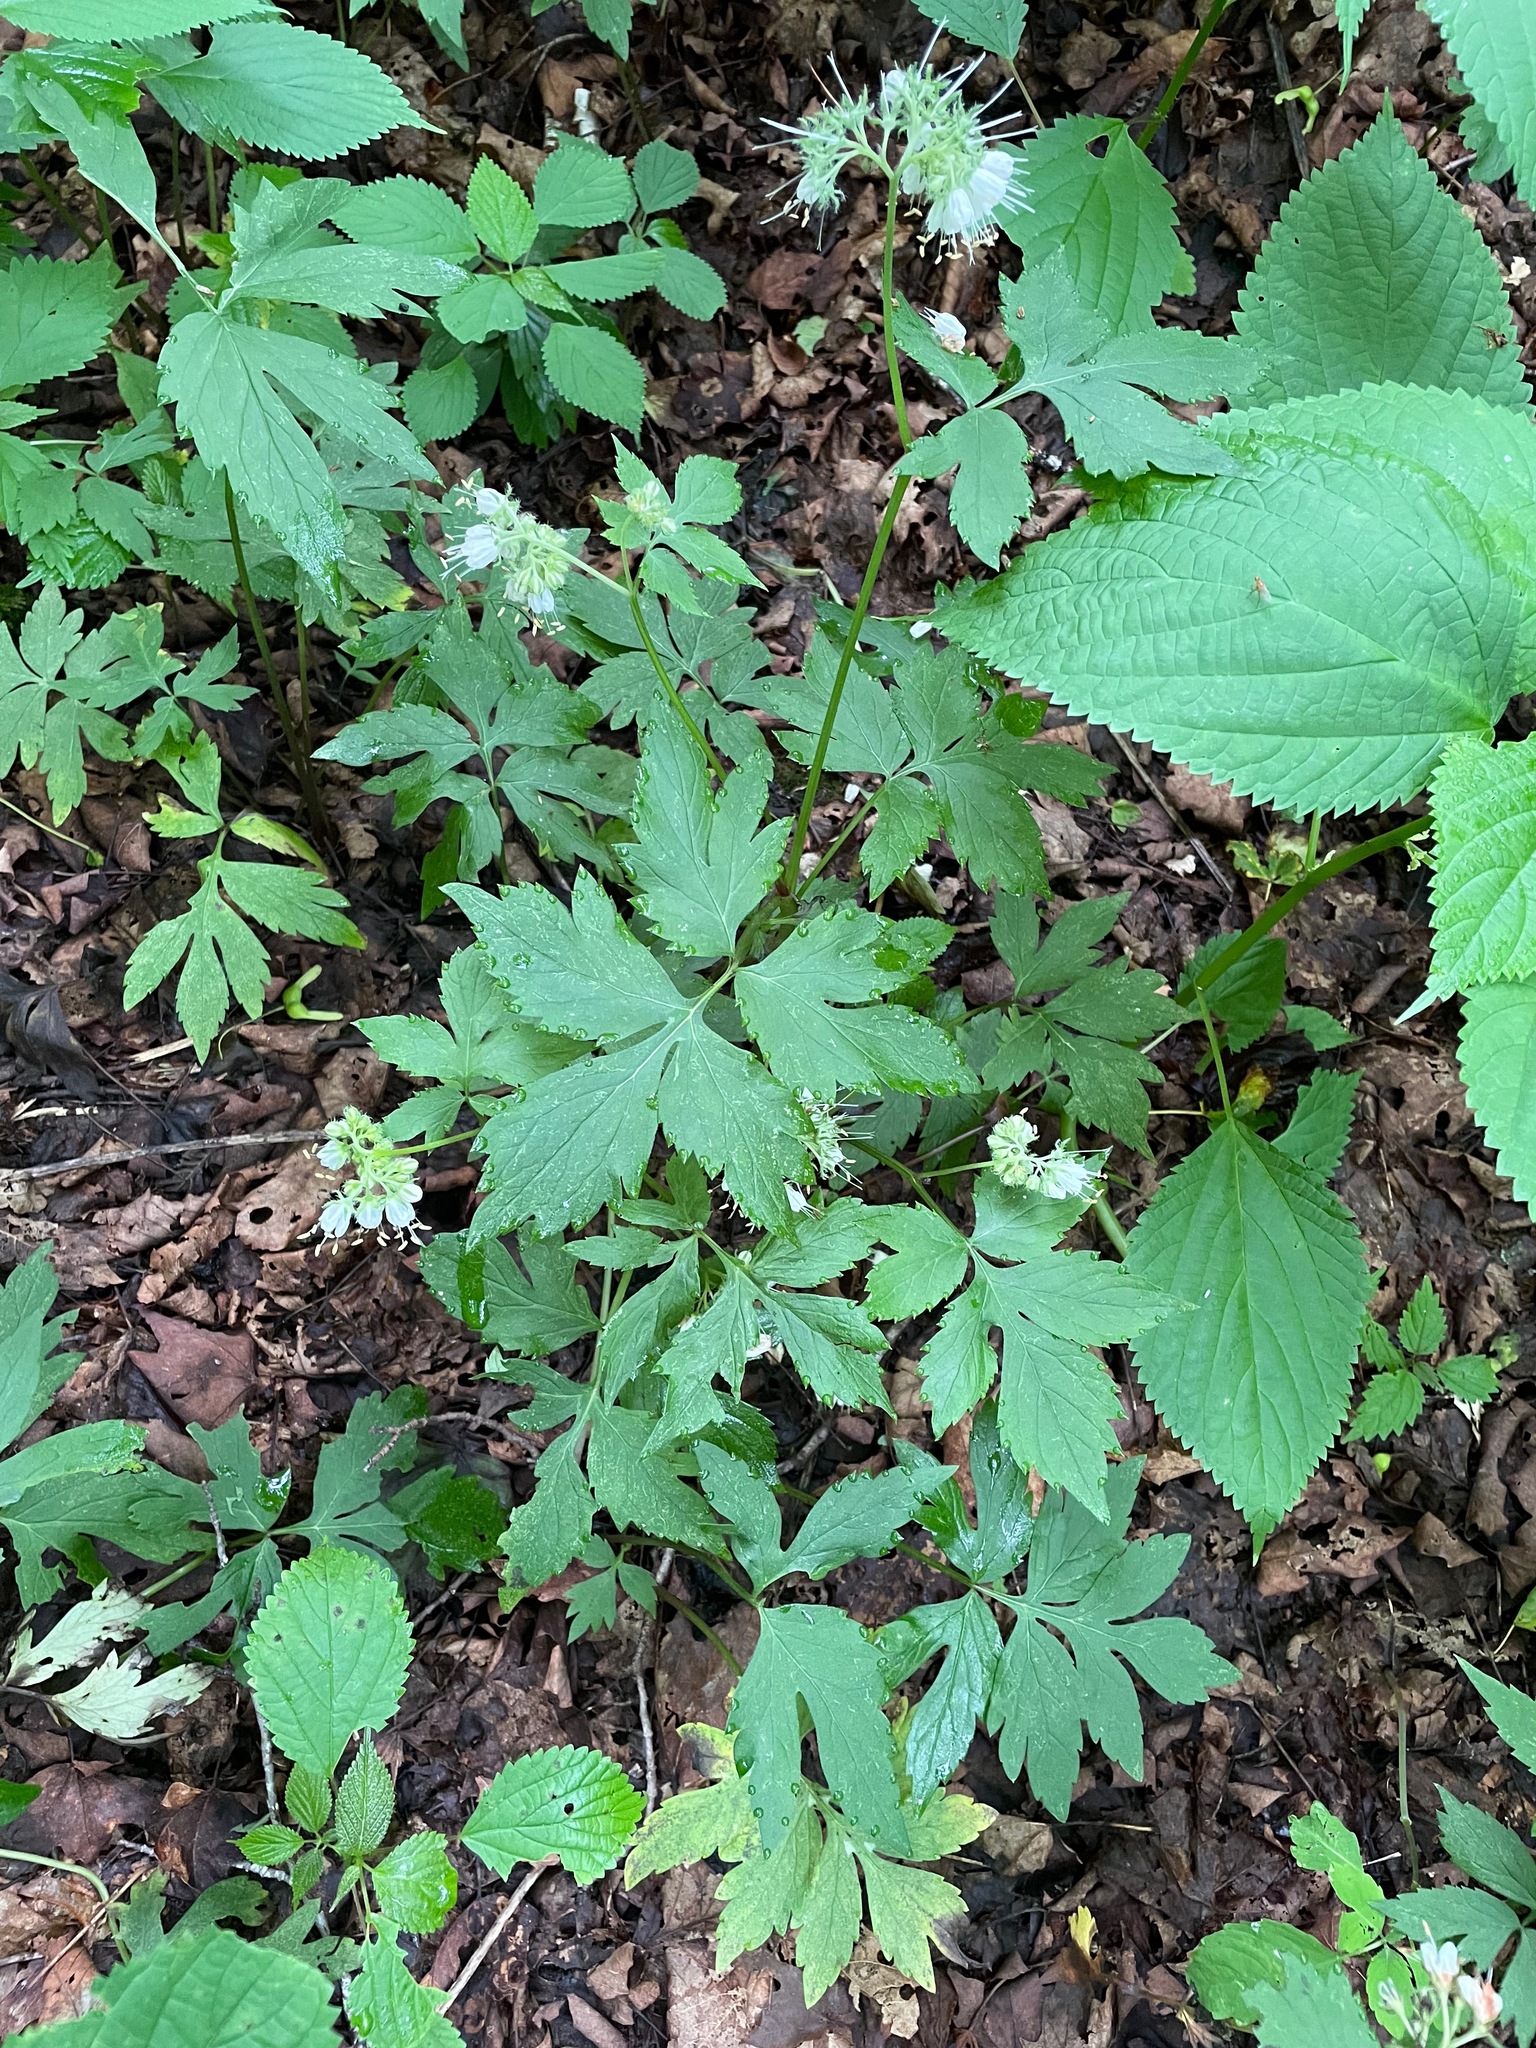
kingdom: Plantae
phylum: Tracheophyta
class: Magnoliopsida
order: Boraginales
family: Hydrophyllaceae
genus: Hydrophyllum
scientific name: Hydrophyllum virginianum
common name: Virginia waterleaf
